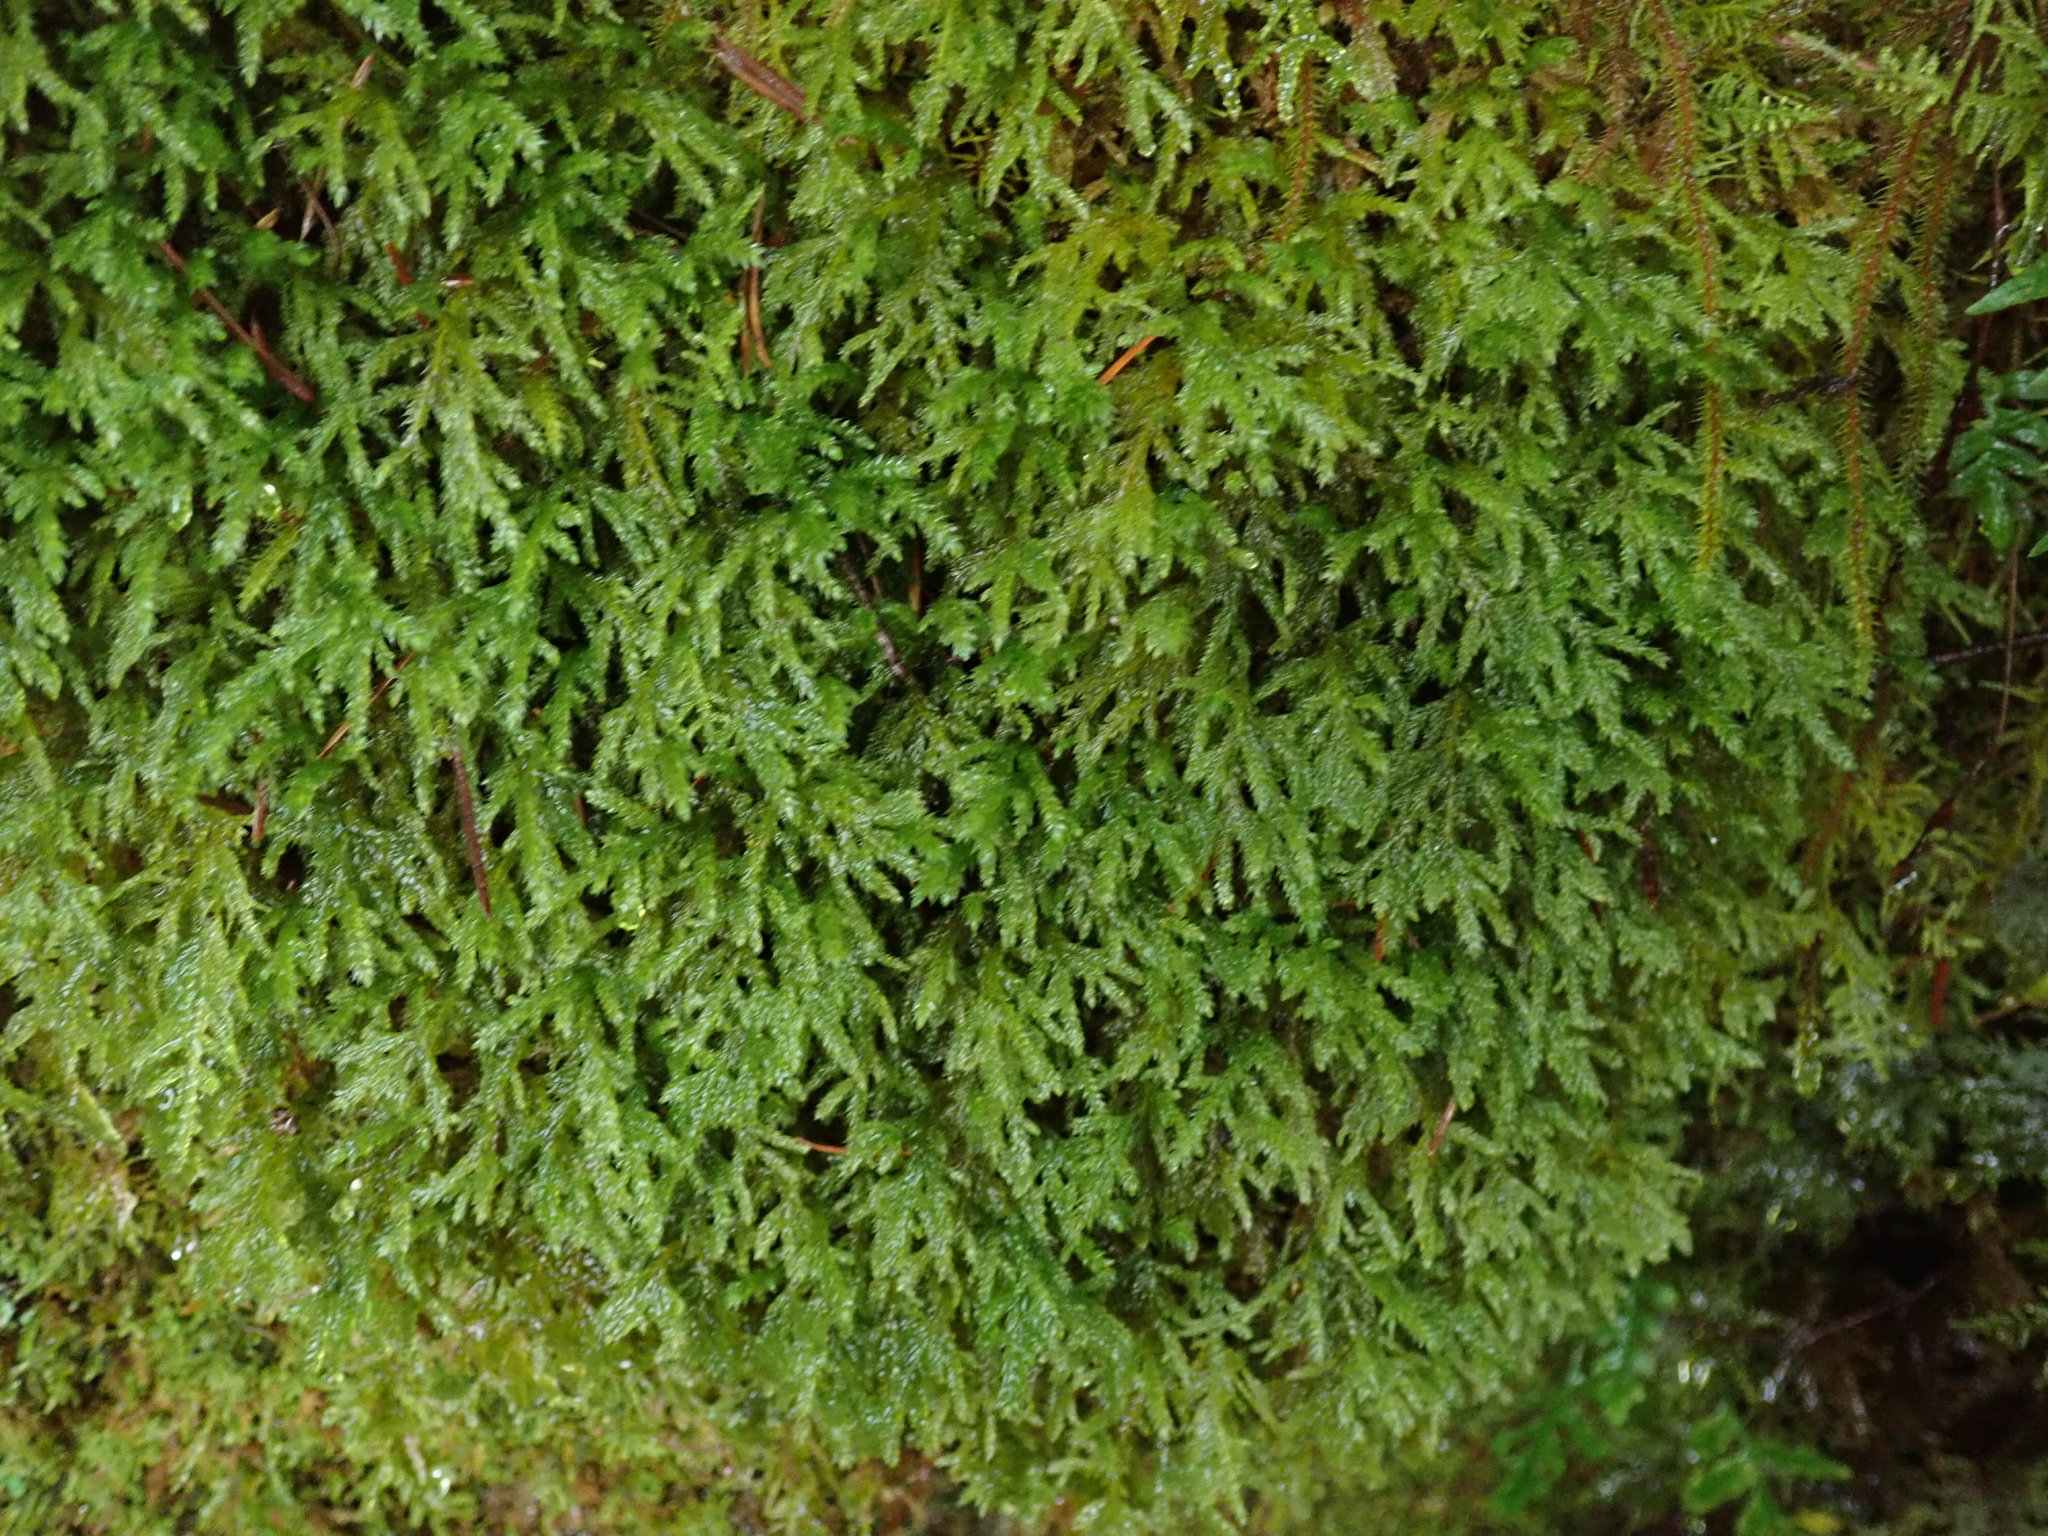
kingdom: Plantae
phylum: Bryophyta
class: Bryopsida
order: Hypnales
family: Lembophyllaceae
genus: Pseudisothecium
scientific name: Pseudisothecium stoloniferum
